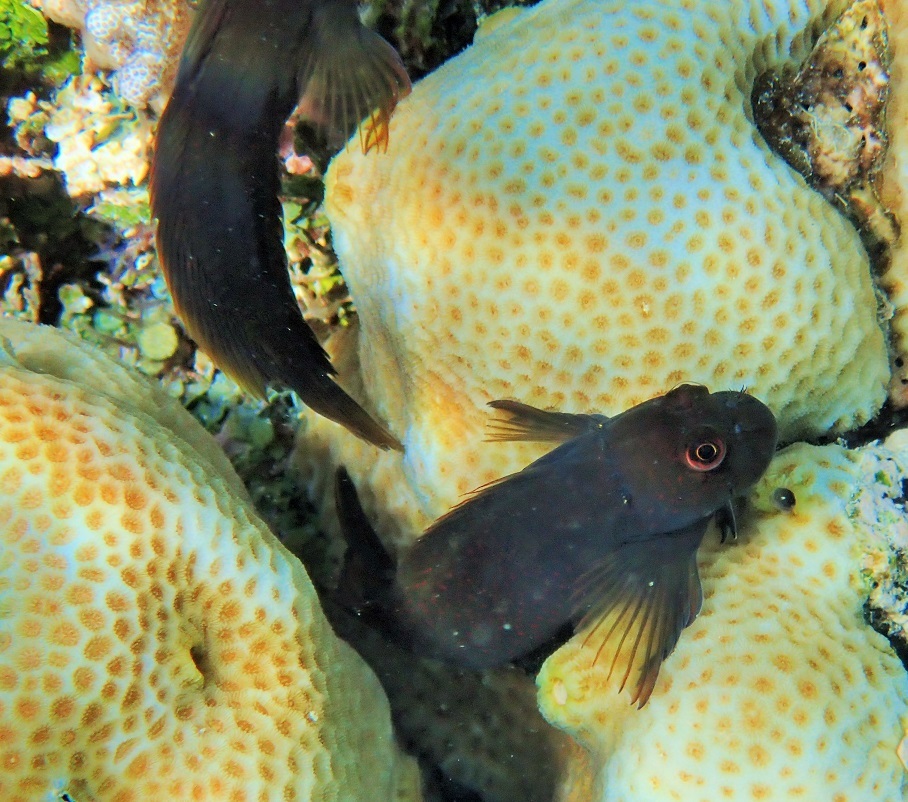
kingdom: Animalia
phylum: Chordata
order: Perciformes
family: Blenniidae
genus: Cirripectes
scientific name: Cirripectes chelomatus
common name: Lady musgrave blenny
